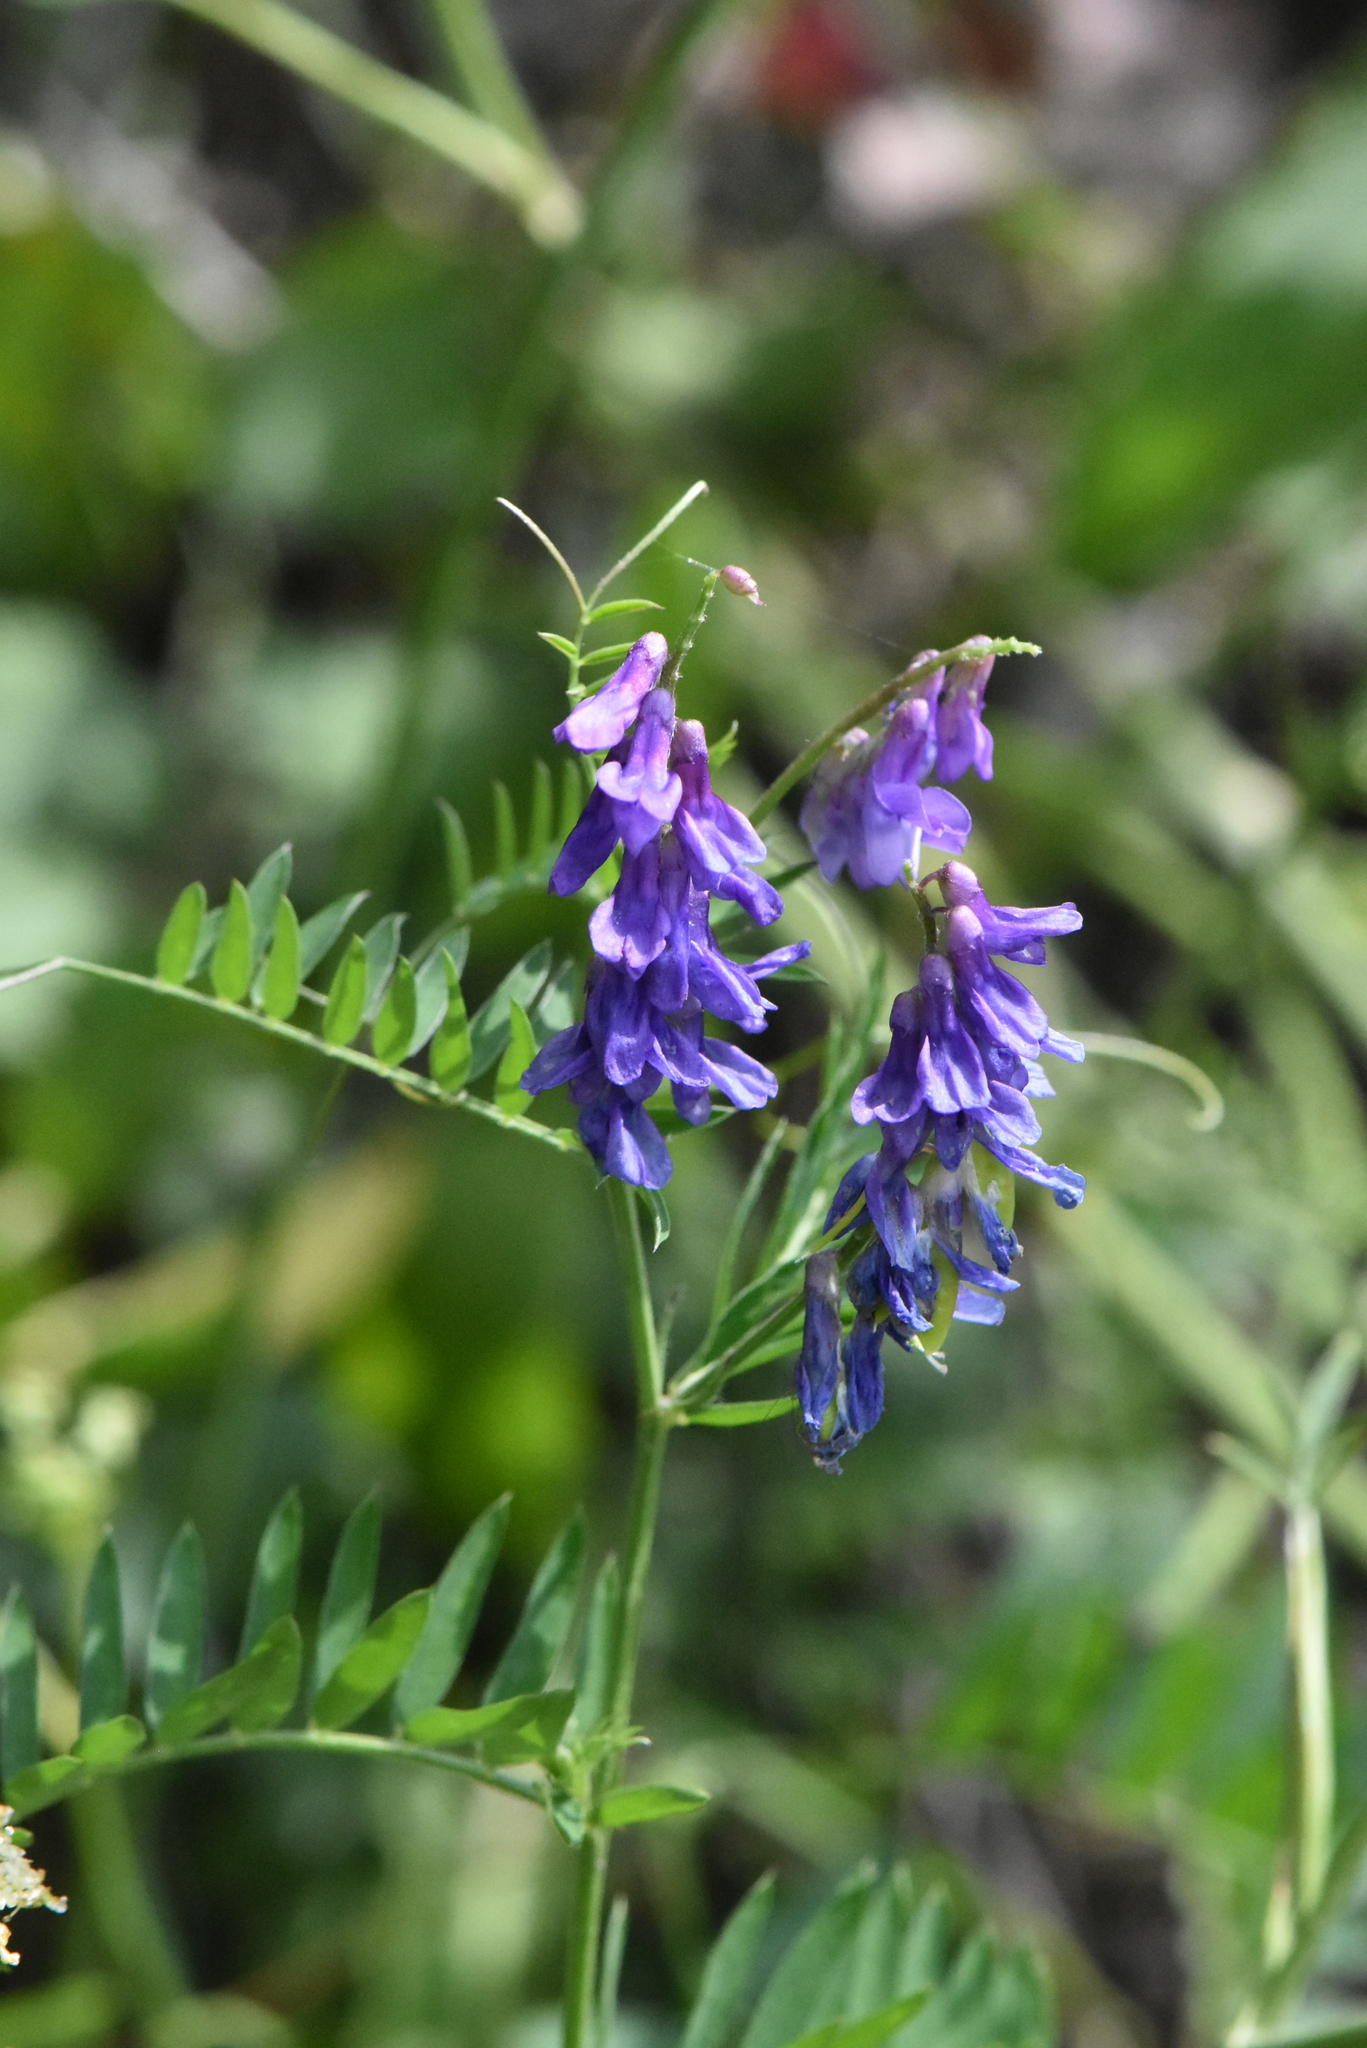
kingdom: Plantae
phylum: Tracheophyta
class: Magnoliopsida
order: Fabales
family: Fabaceae
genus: Vicia
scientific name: Vicia cracca
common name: Bird vetch
